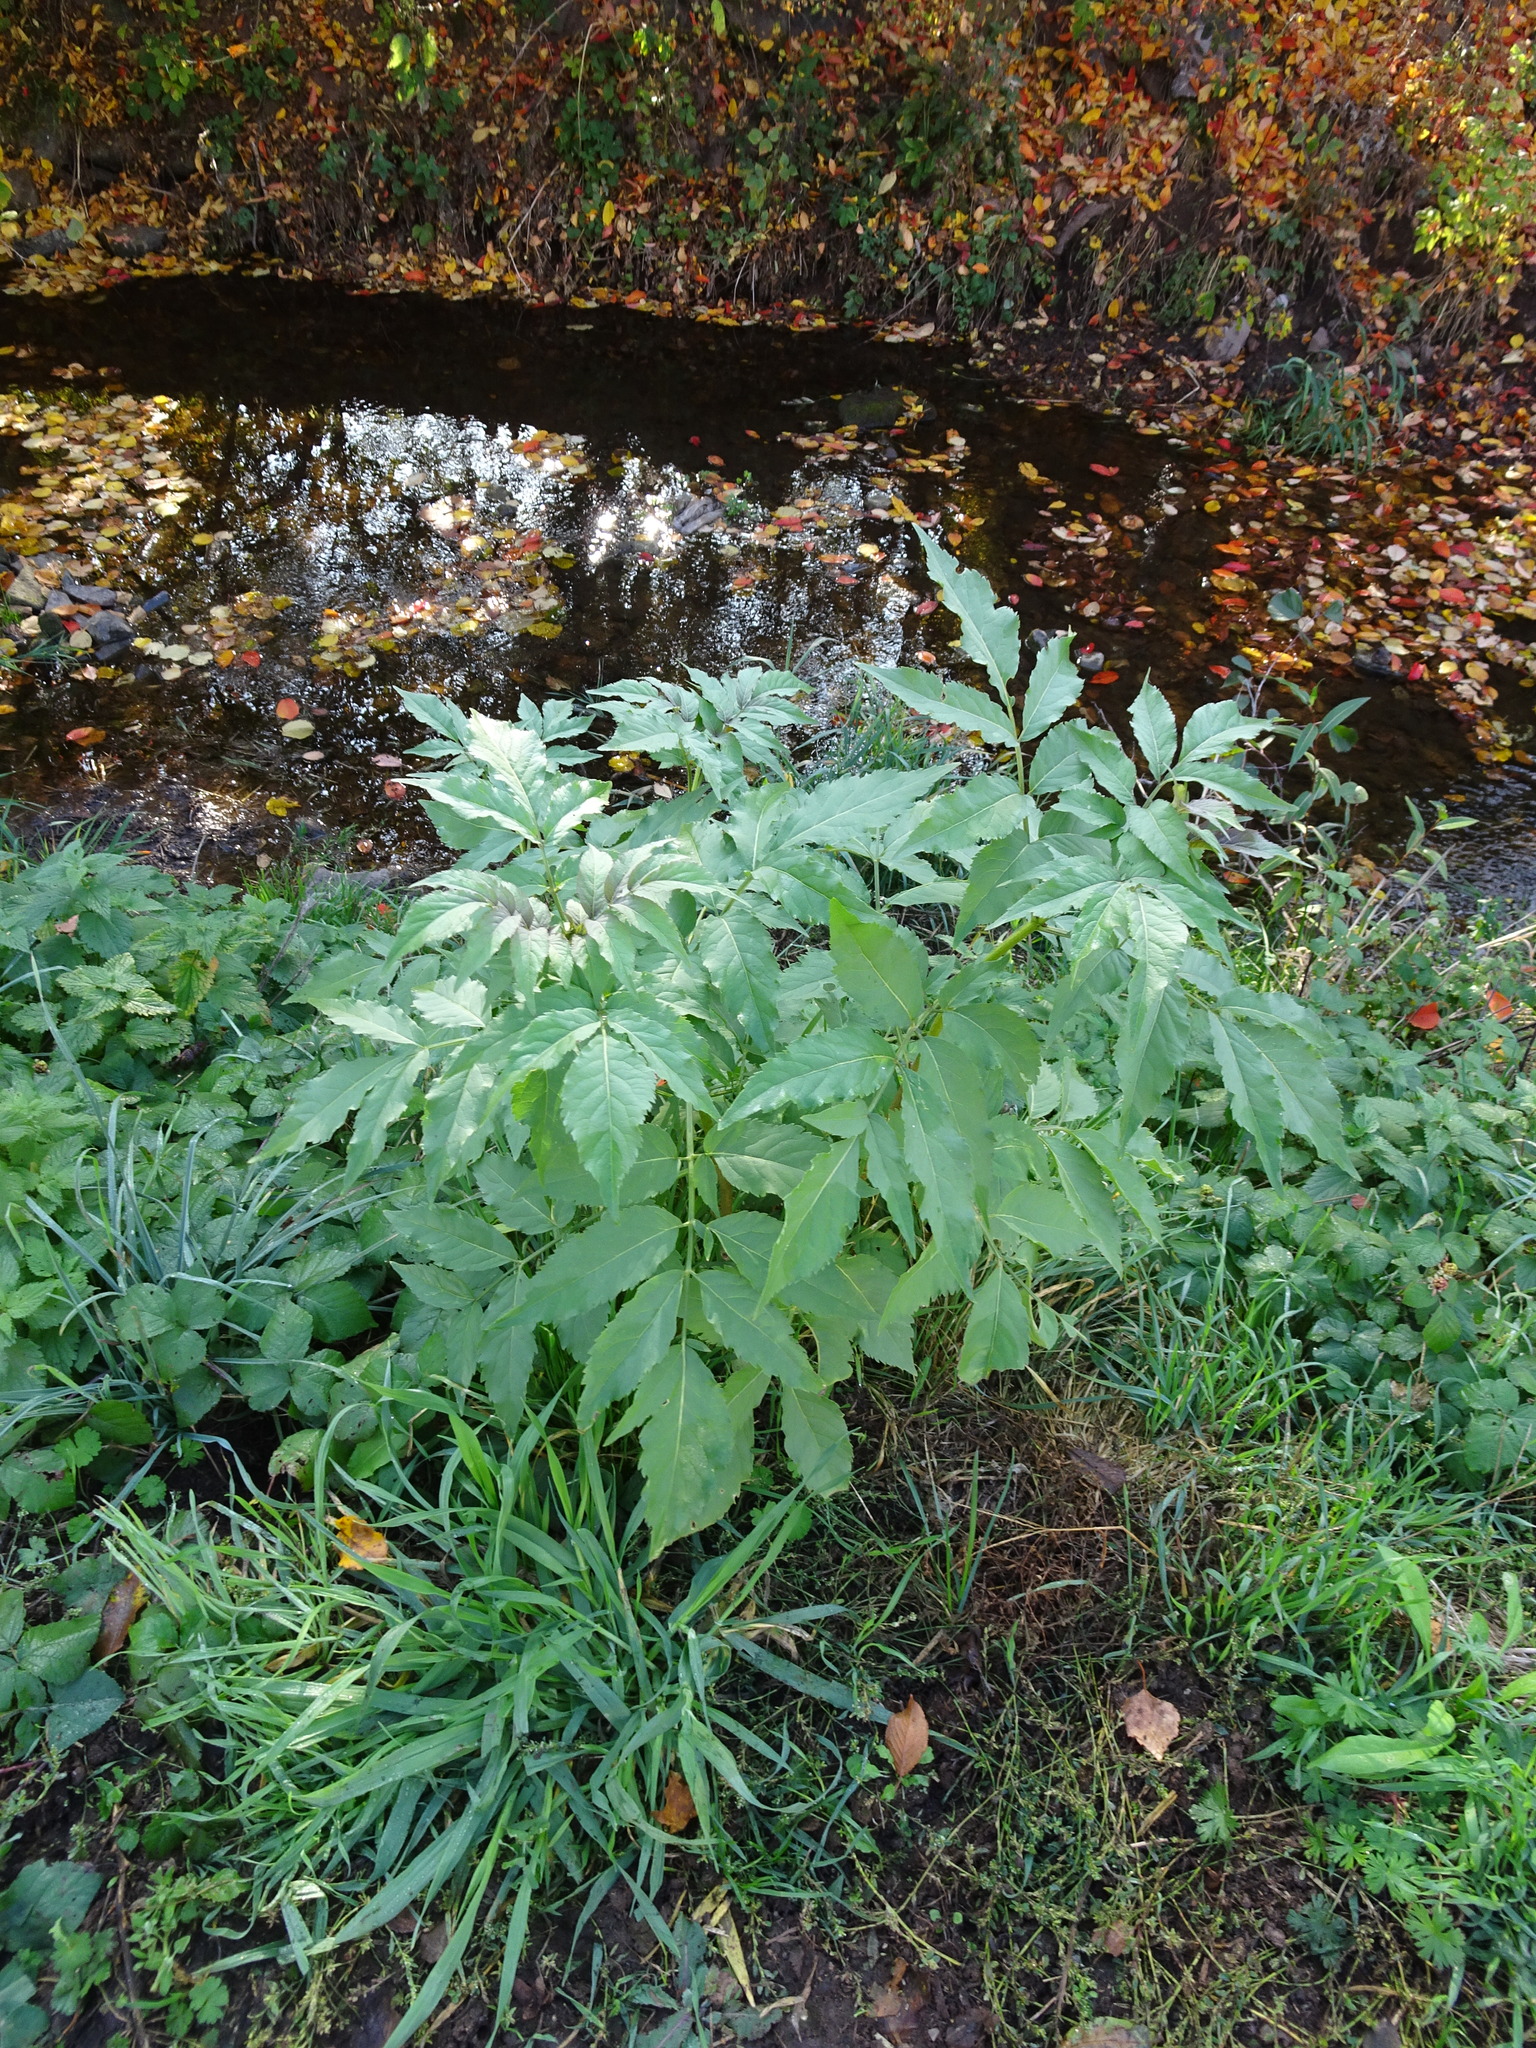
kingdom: Plantae
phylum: Tracheophyta
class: Magnoliopsida
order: Dipsacales
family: Viburnaceae
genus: Sambucus
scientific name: Sambucus nigra
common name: Elder
